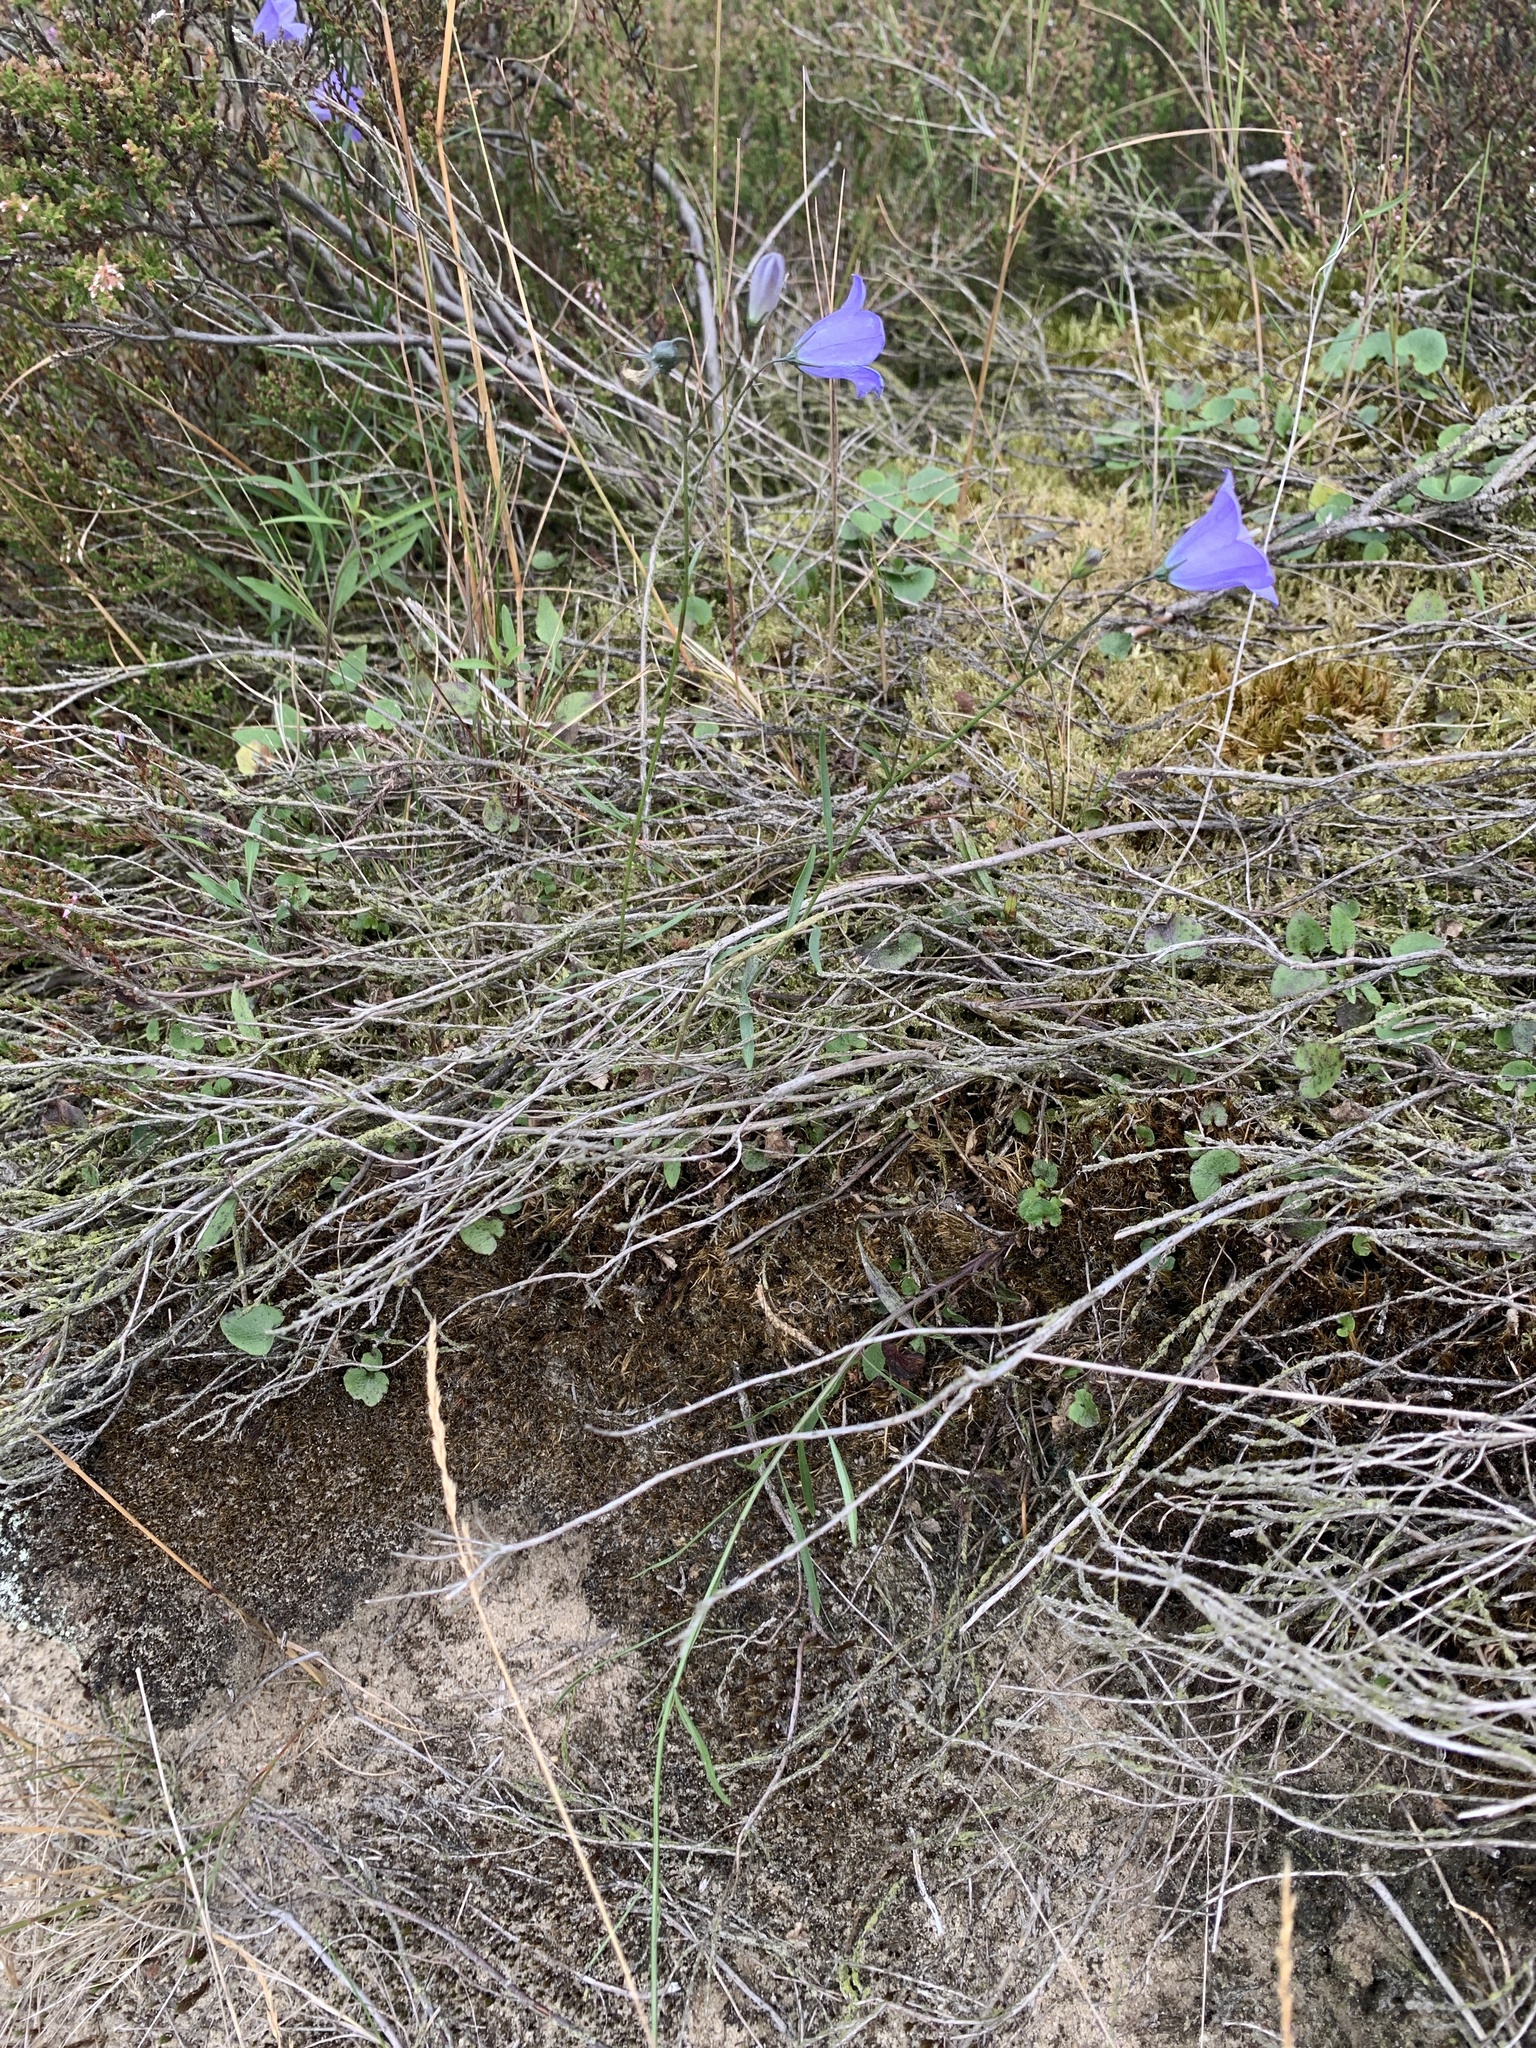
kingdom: Plantae
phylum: Tracheophyta
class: Magnoliopsida
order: Asterales
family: Campanulaceae
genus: Campanula
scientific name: Campanula rotundifolia
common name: Harebell
